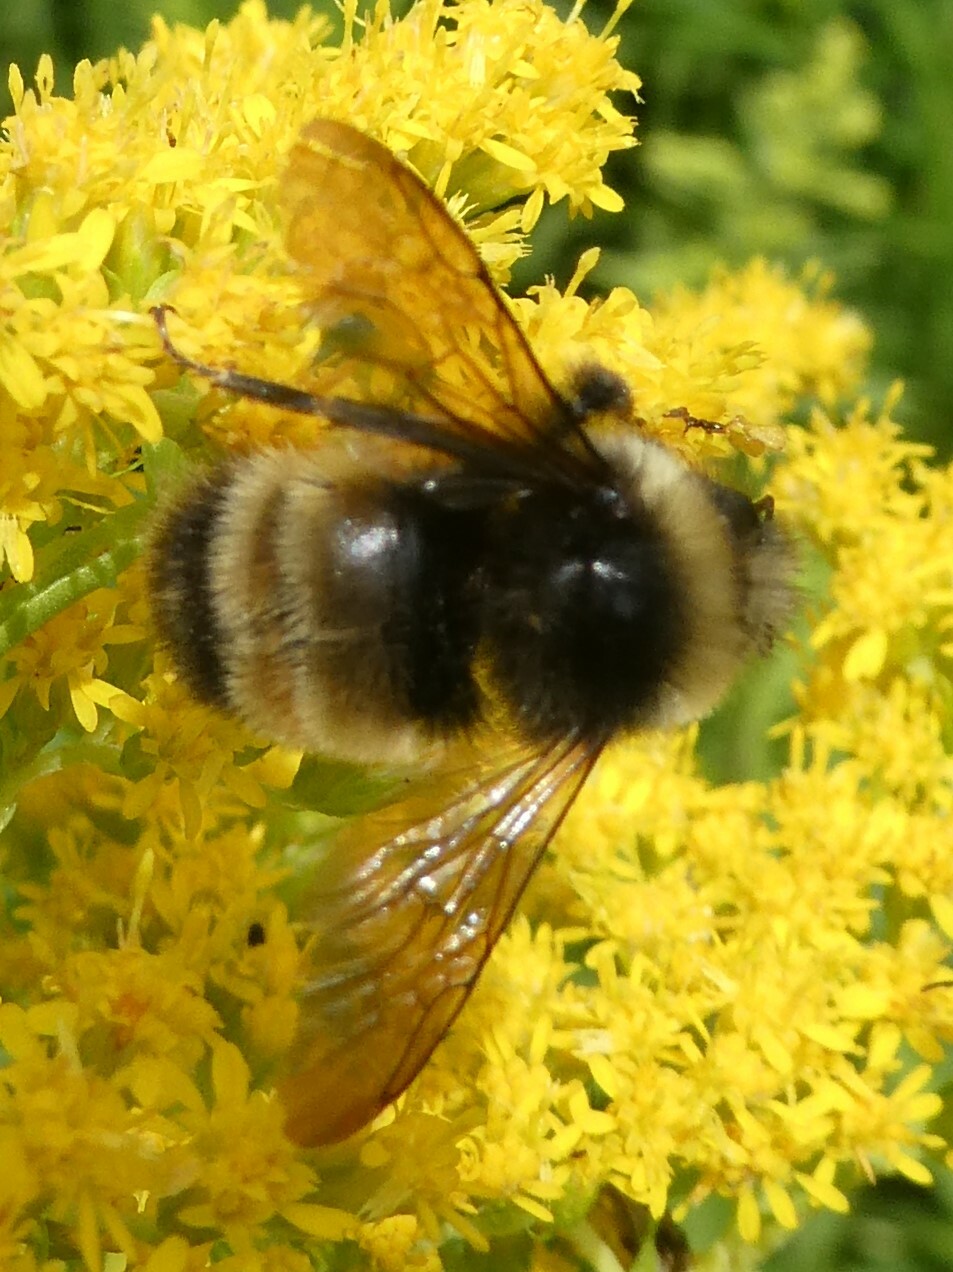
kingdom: Animalia
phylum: Arthropoda
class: Insecta
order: Hymenoptera
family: Apidae
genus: Bombus
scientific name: Bombus terricola
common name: Yellow-banded bumble bee
